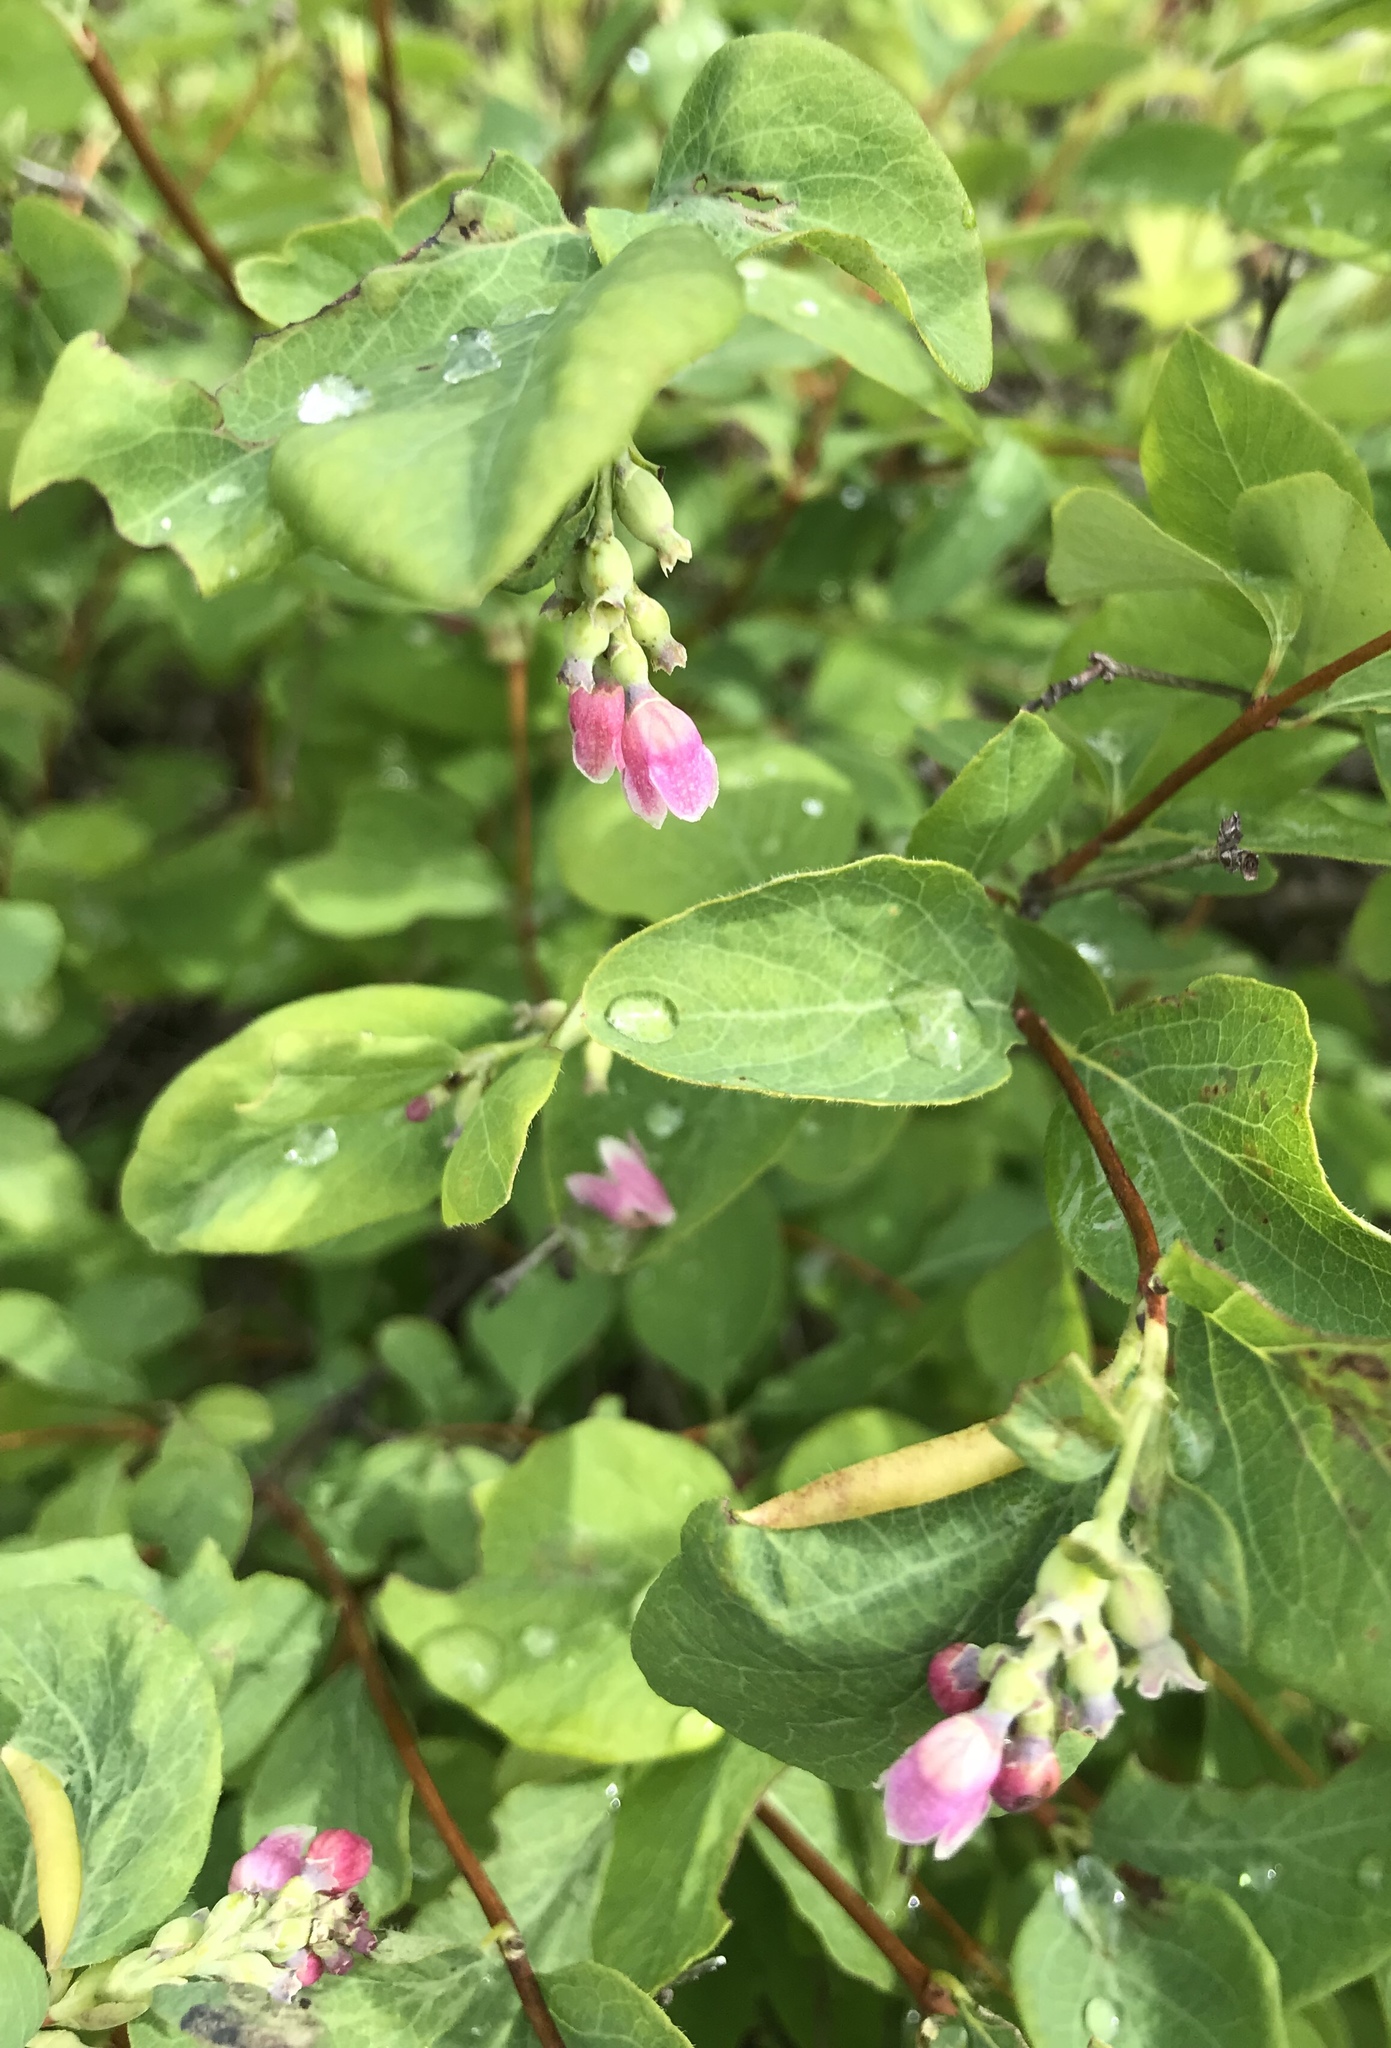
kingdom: Plantae
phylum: Tracheophyta
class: Magnoliopsida
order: Dipsacales
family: Caprifoliaceae
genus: Symphoricarpos
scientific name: Symphoricarpos albus
